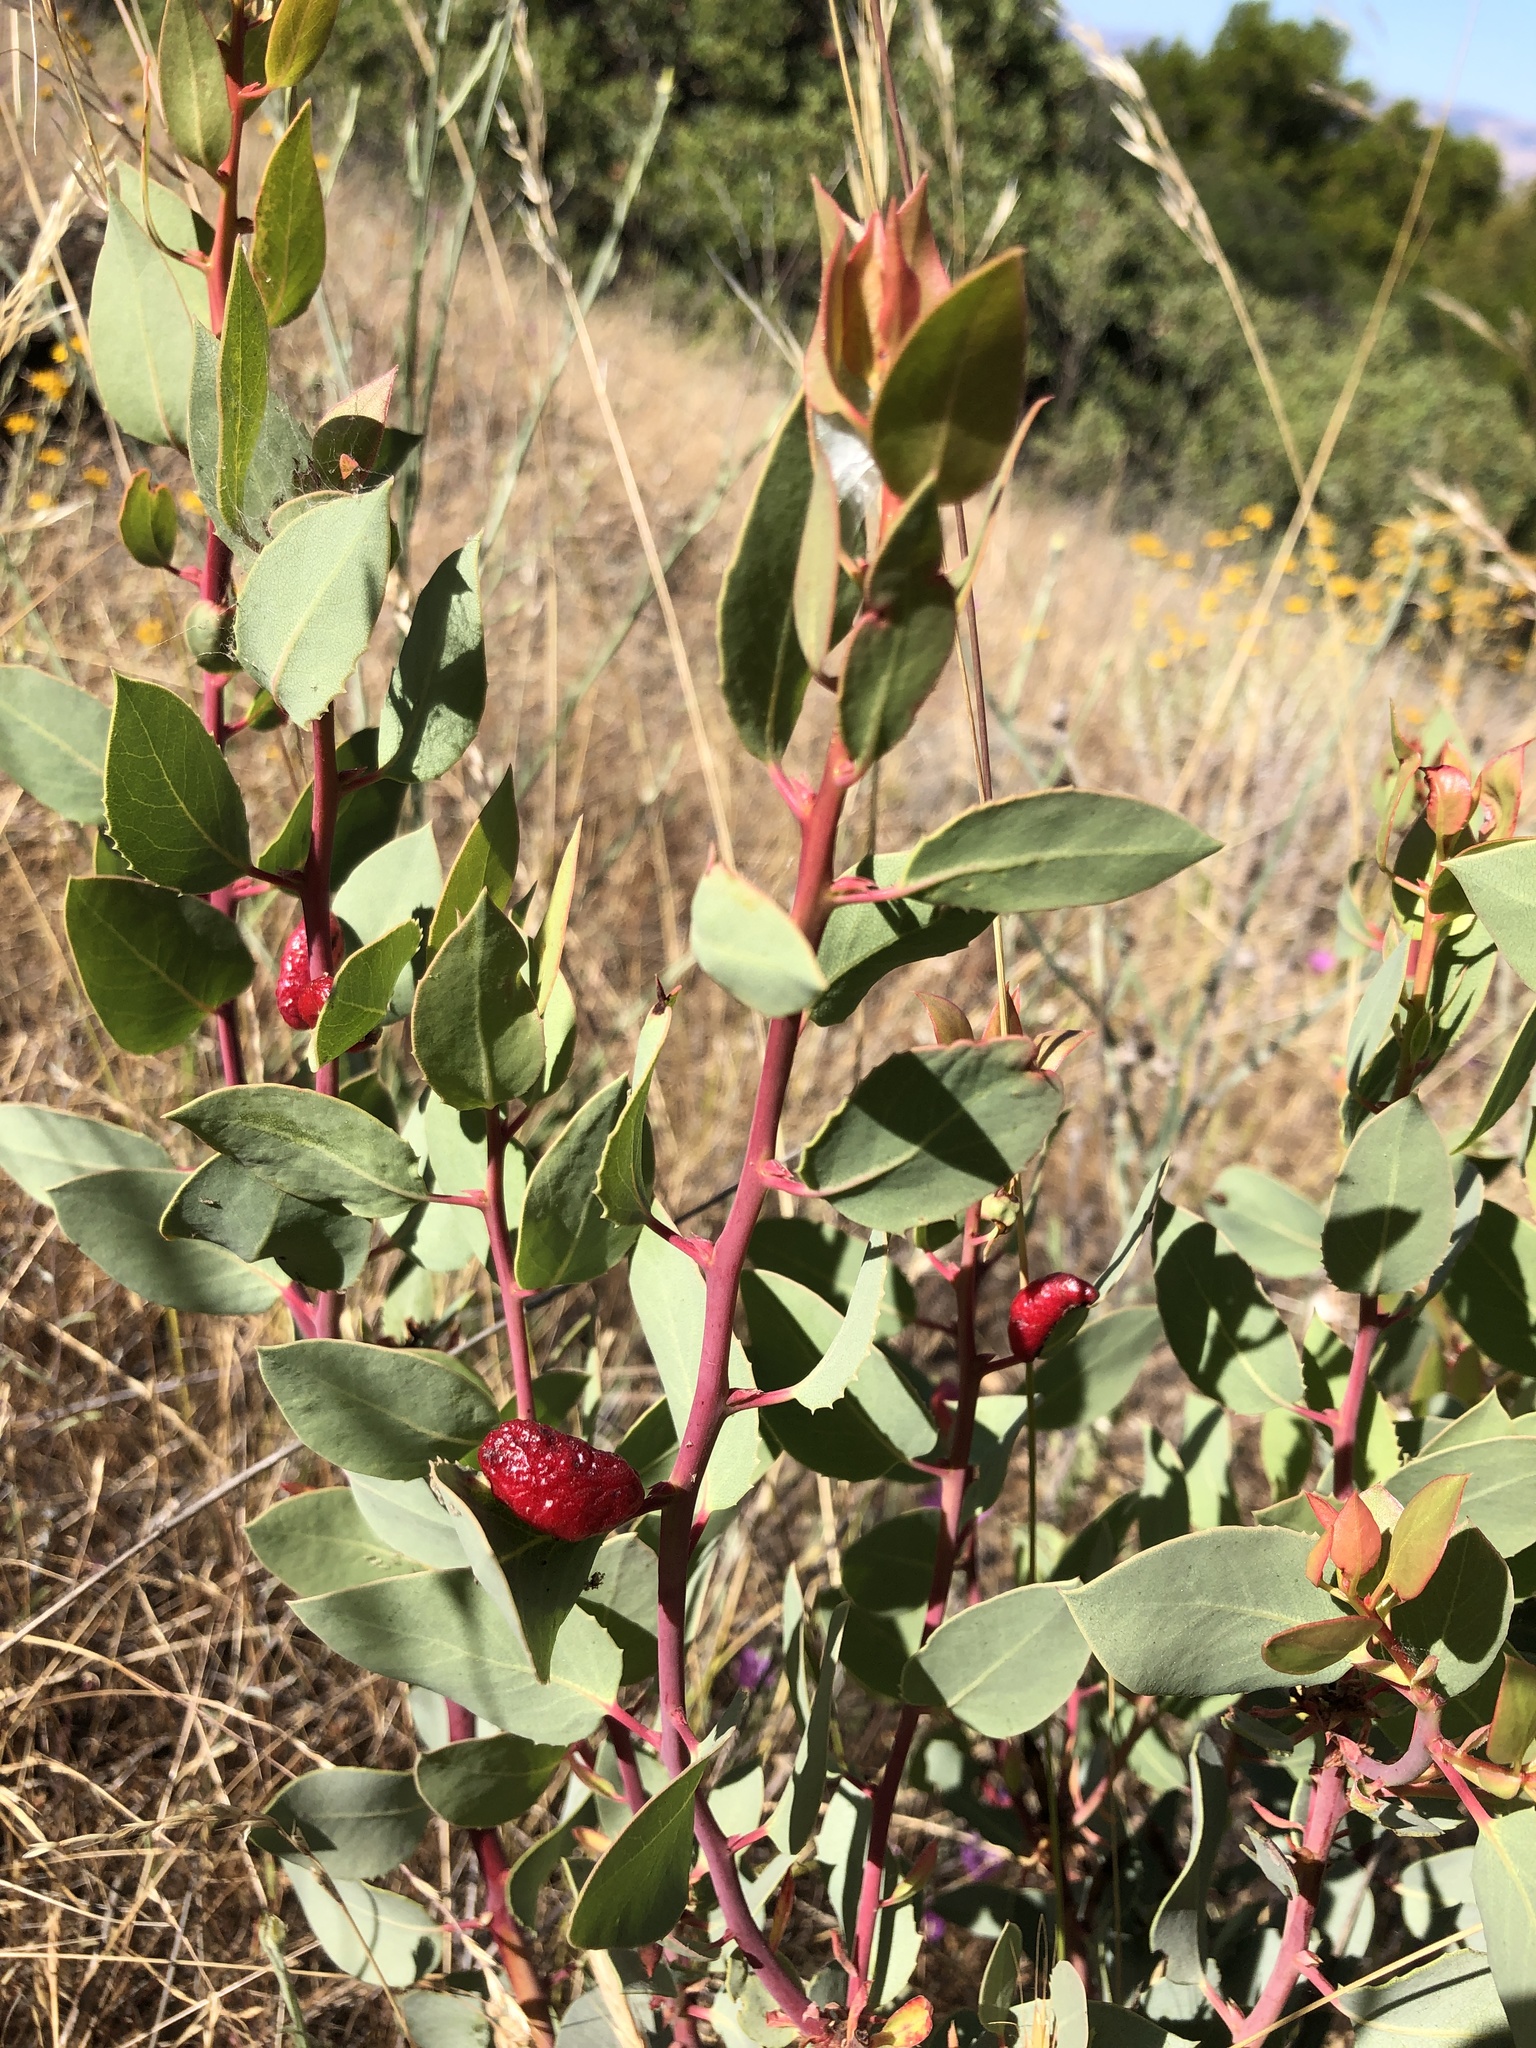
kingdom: Animalia
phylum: Arthropoda
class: Insecta
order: Hemiptera
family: Aphididae
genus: Tamalia
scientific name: Tamalia coweni
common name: Manzanita leafgall aphid
